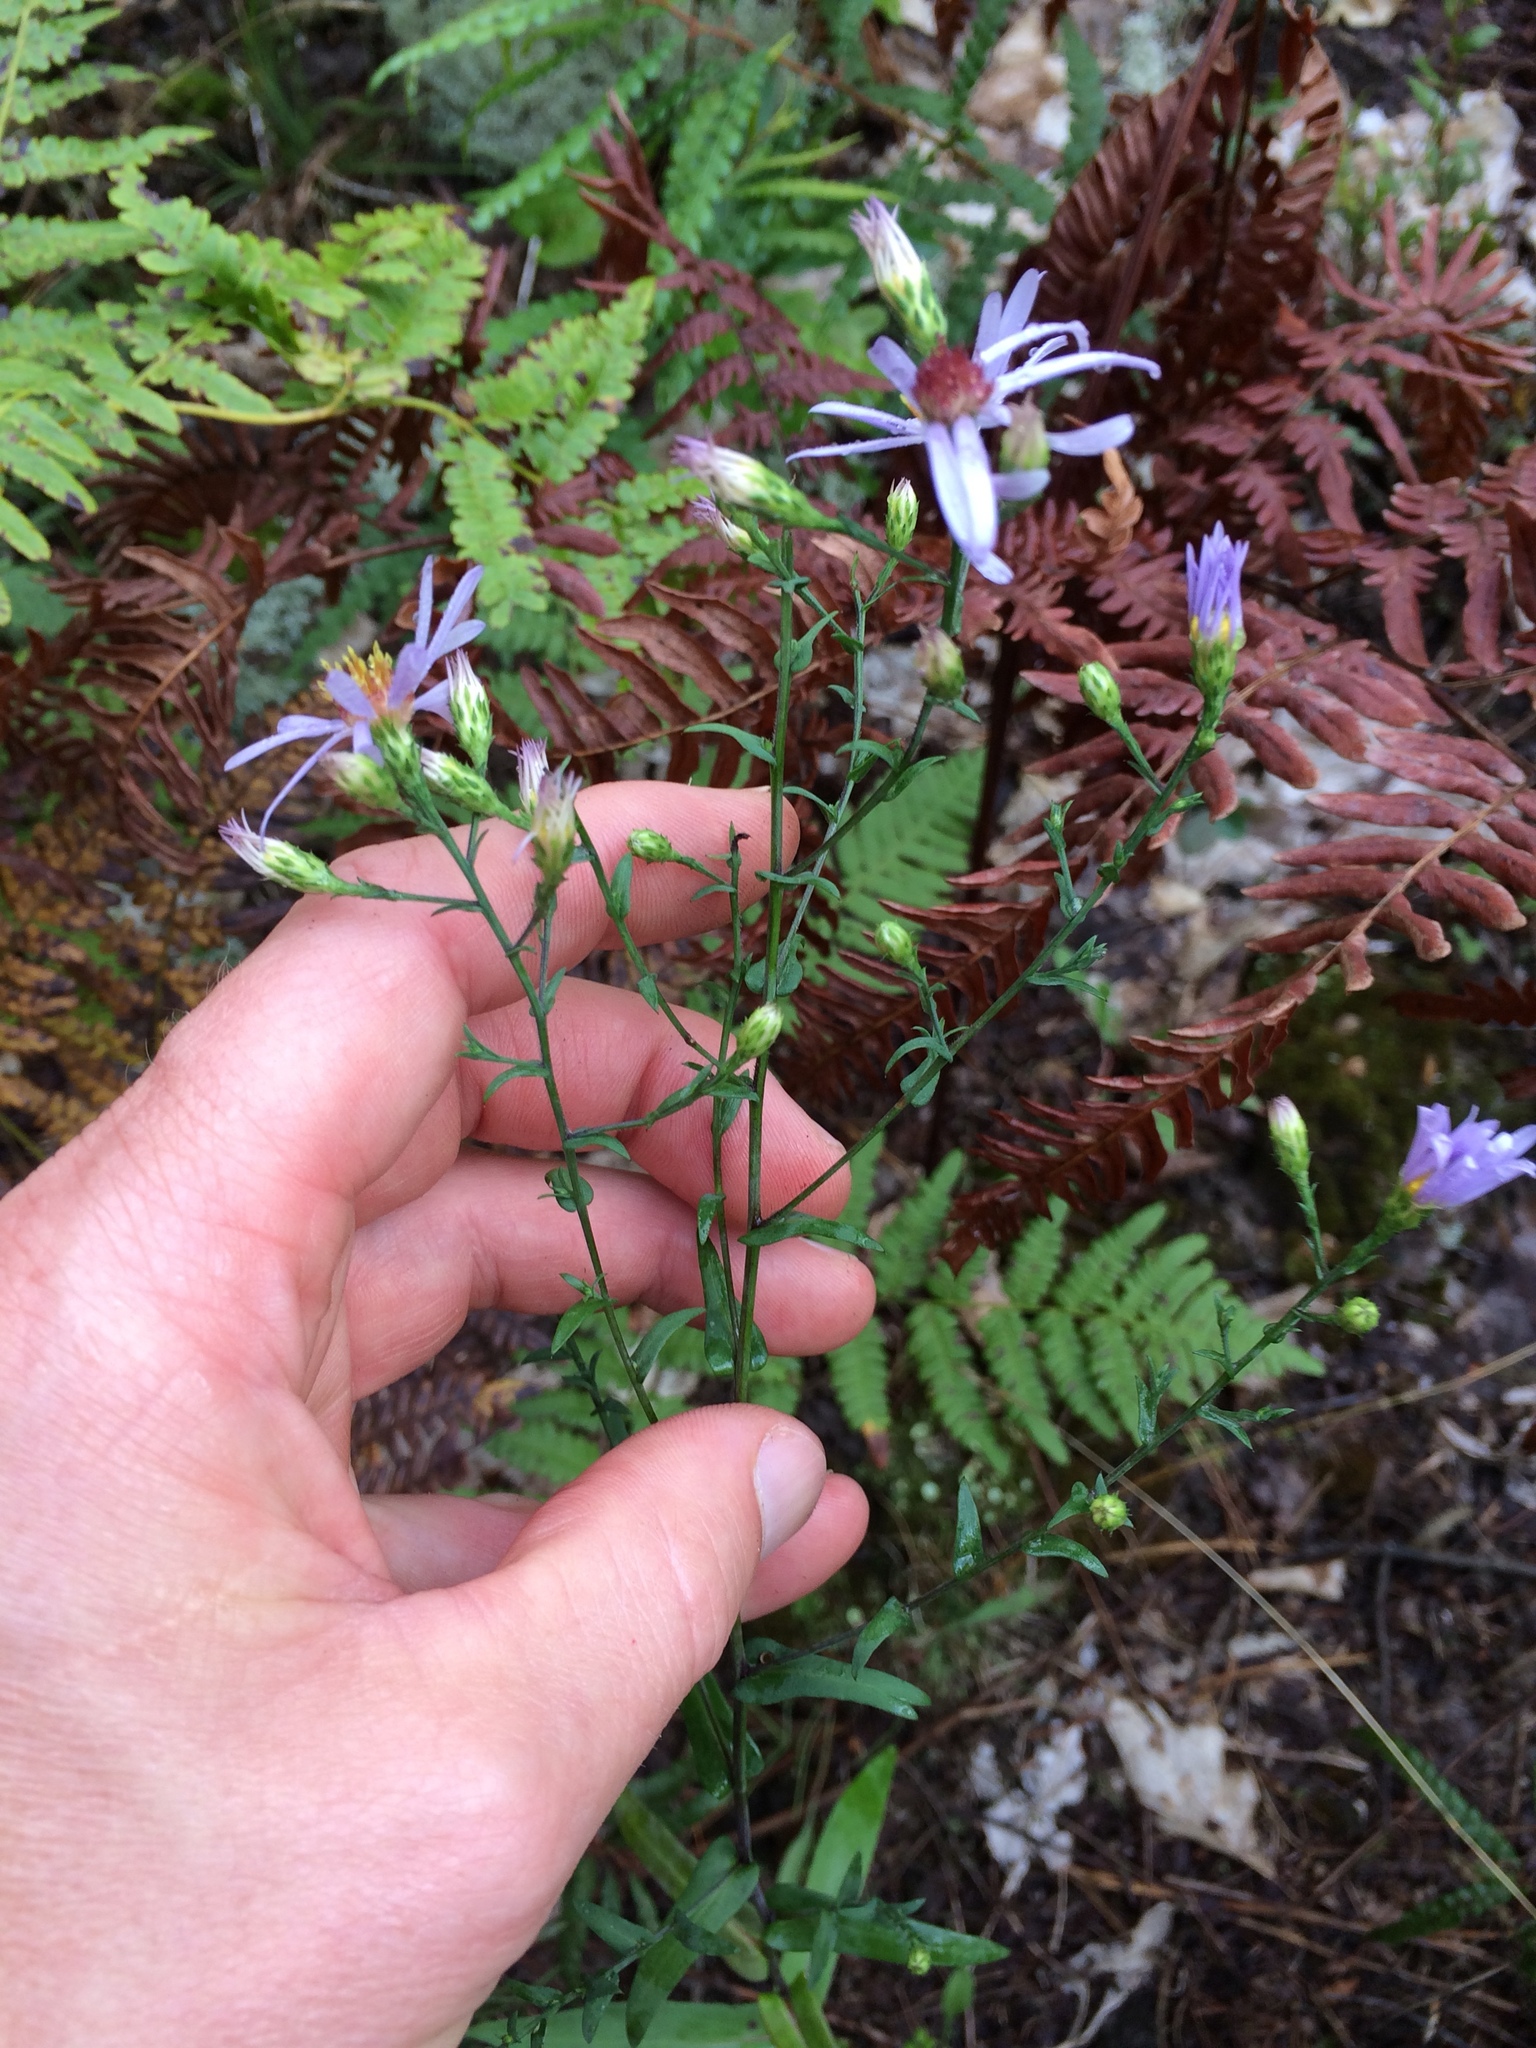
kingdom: Plantae
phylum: Tracheophyta
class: Magnoliopsida
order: Asterales
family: Asteraceae
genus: Symphyotrichum
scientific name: Symphyotrichum laeve
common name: Glaucous aster
